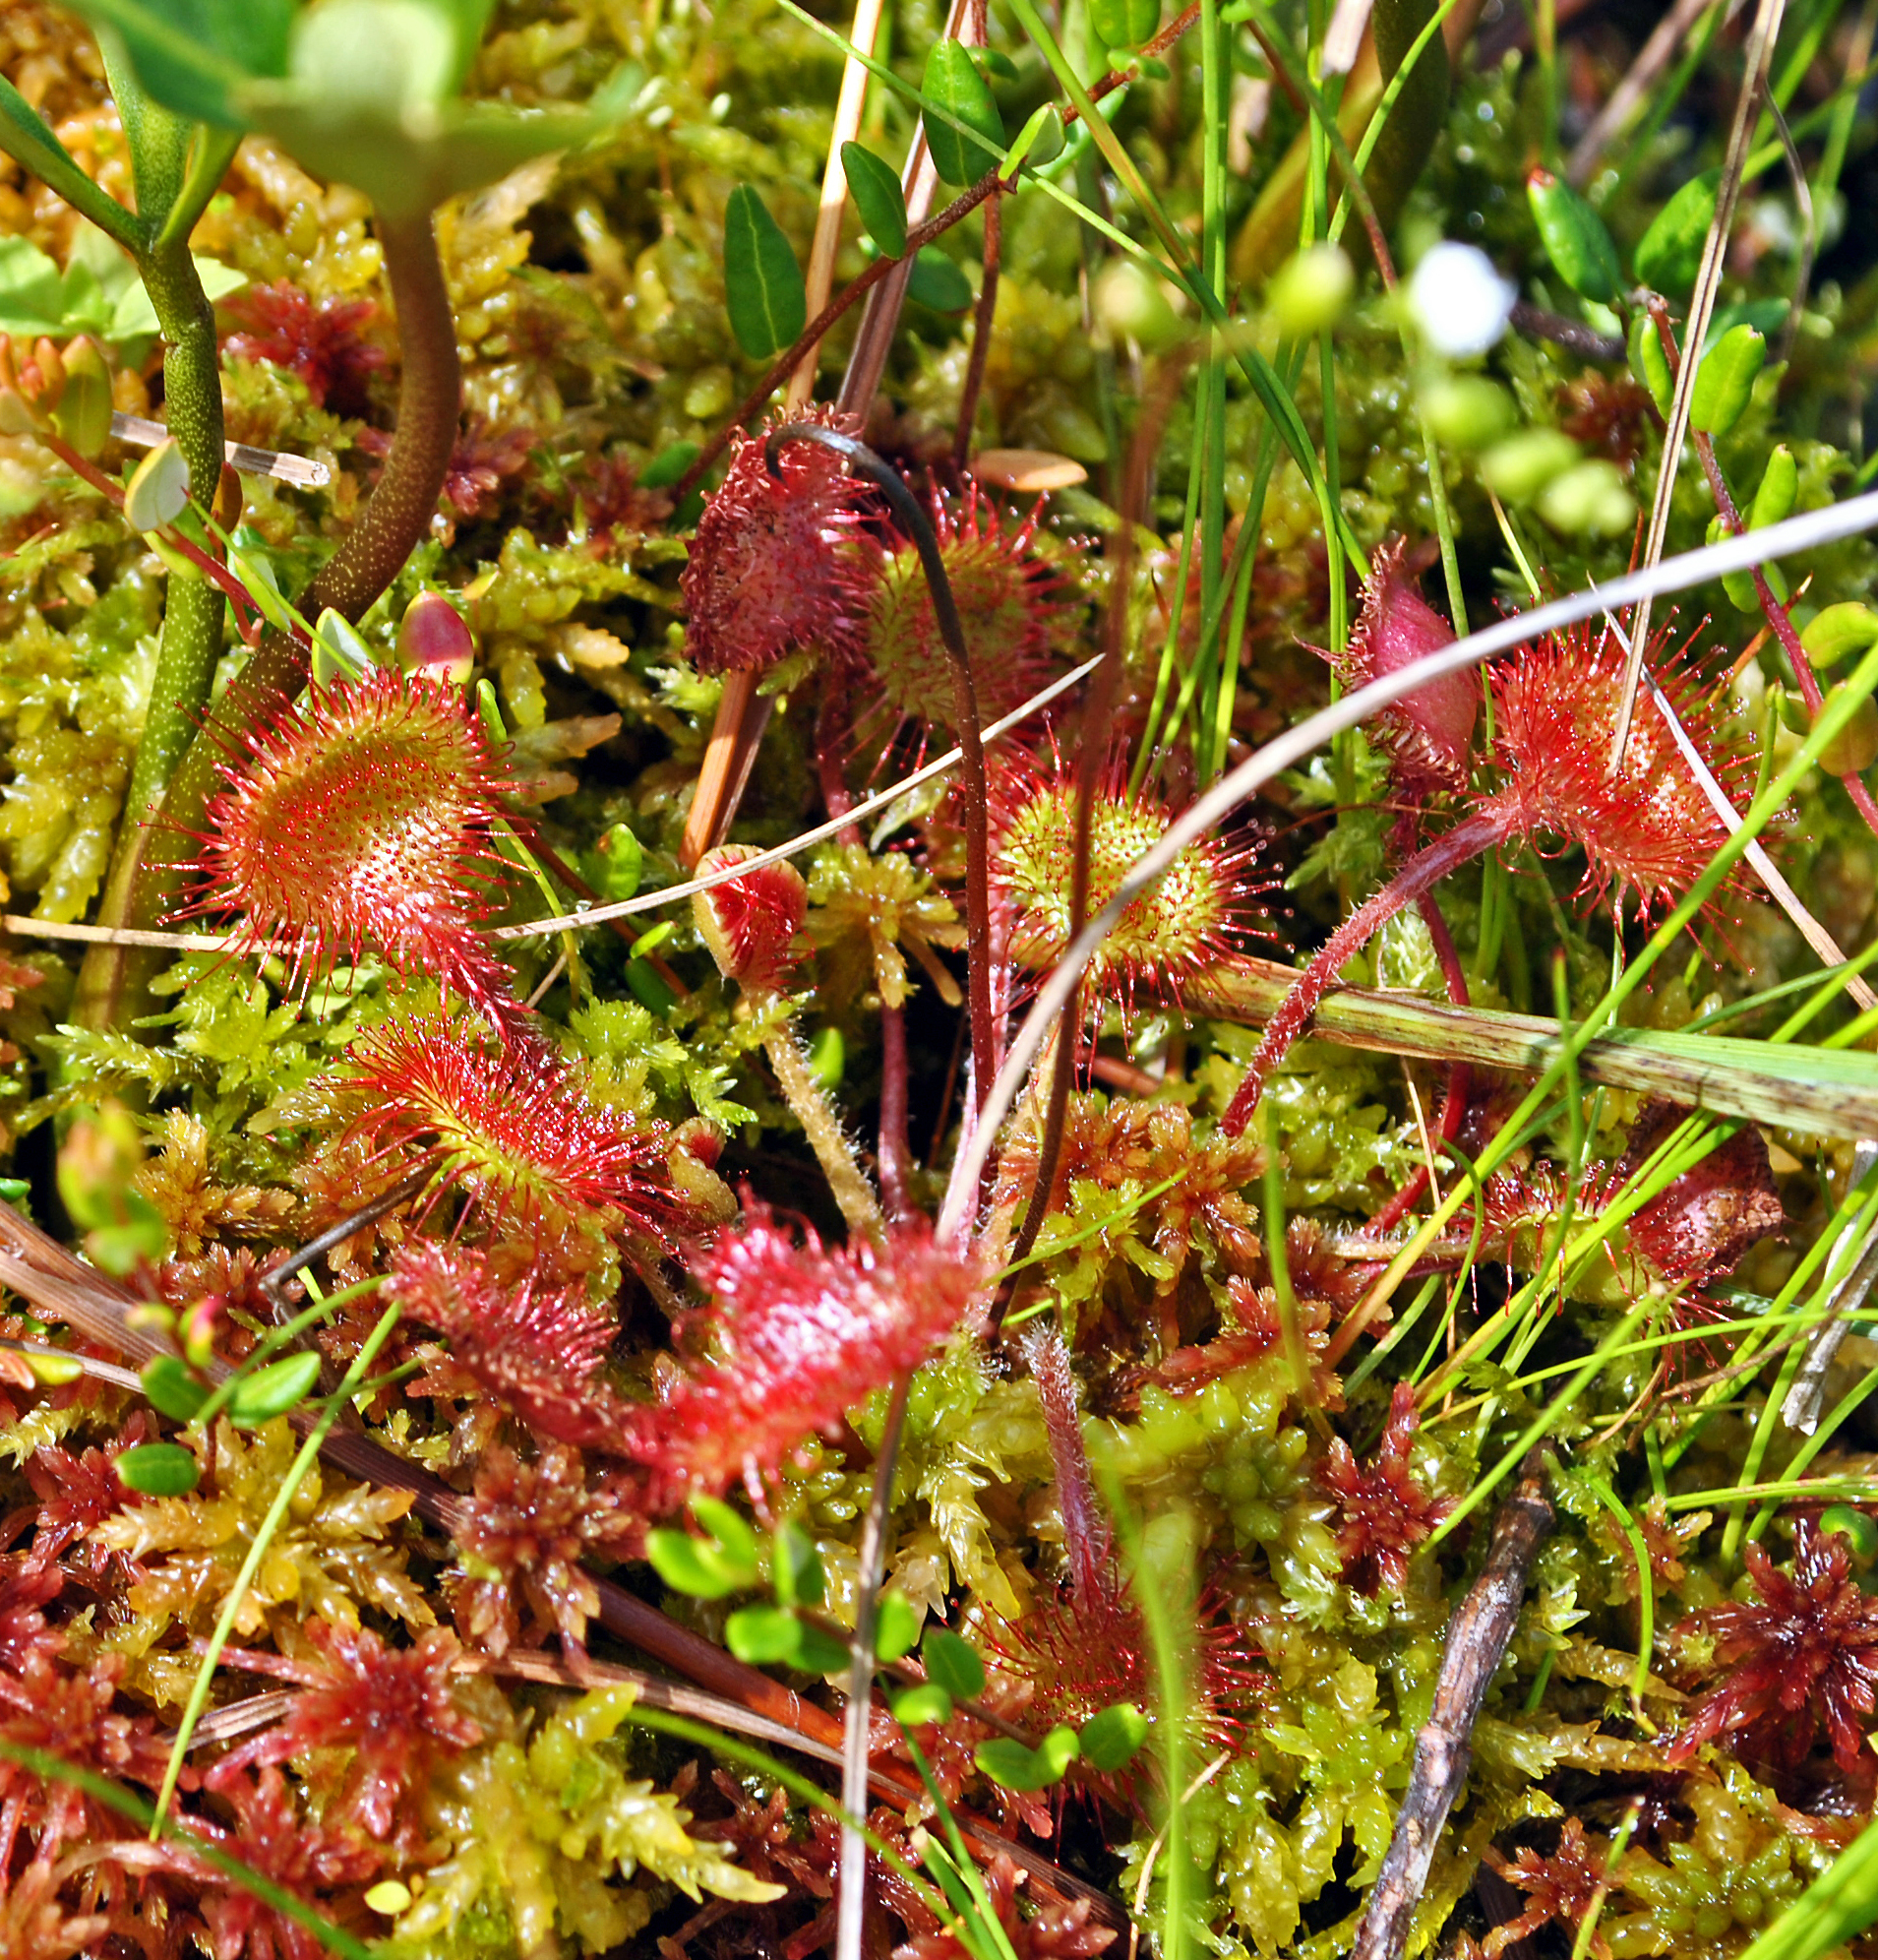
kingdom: Plantae
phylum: Tracheophyta
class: Magnoliopsida
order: Caryophyllales
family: Droseraceae
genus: Drosera
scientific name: Drosera rotundifolia
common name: Round-leaved sundew
